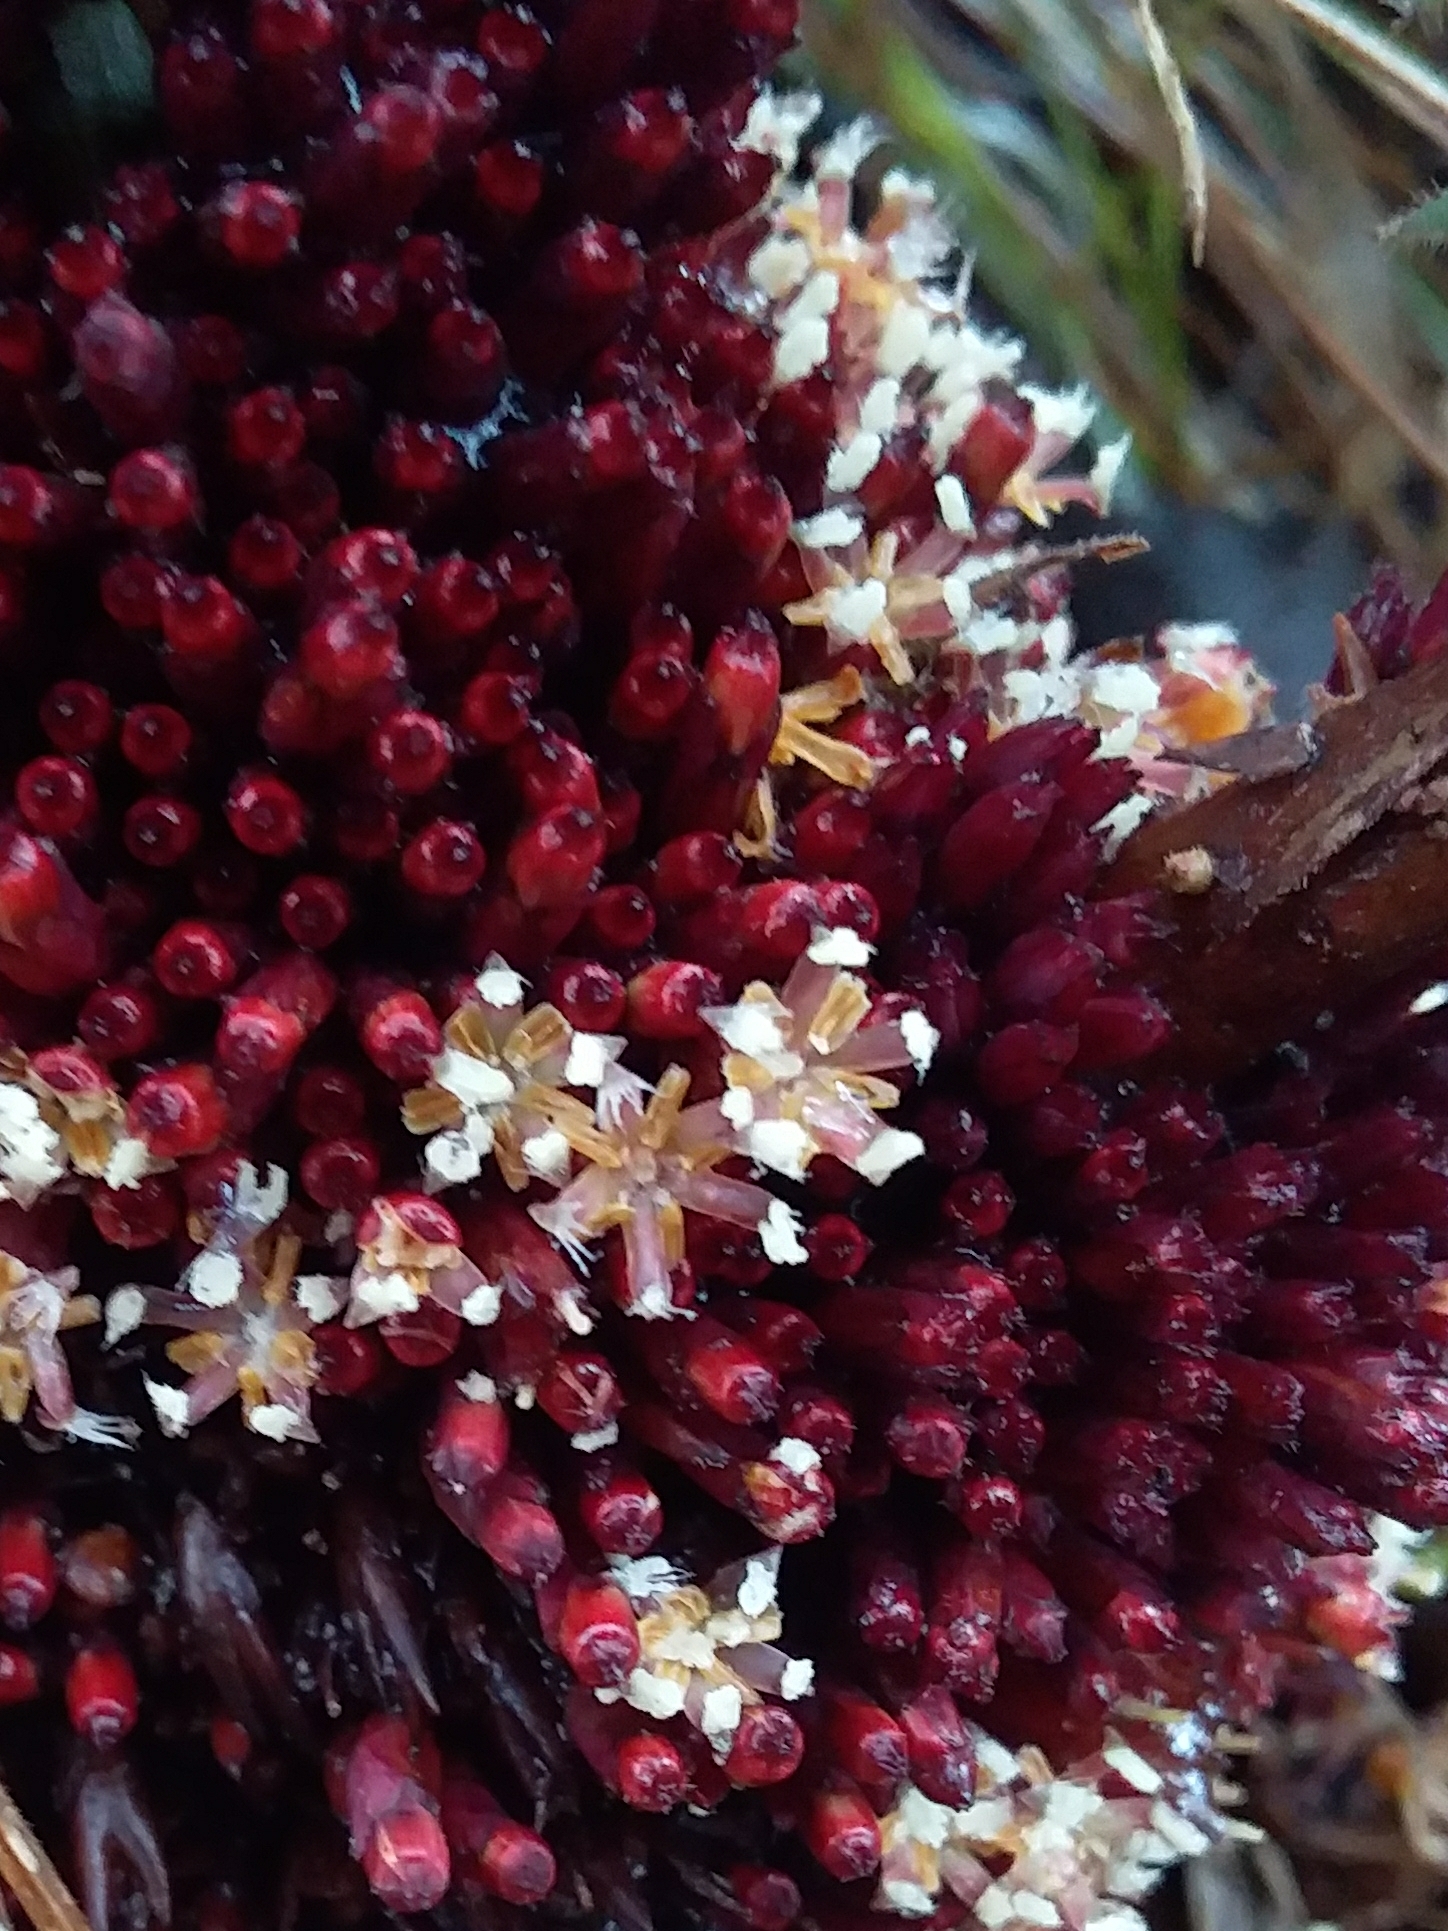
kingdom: Plantae
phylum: Tracheophyta
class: Magnoliopsida
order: Ericales
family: Ericaceae
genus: Acrotriche
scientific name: Acrotriche fasciculiflora
